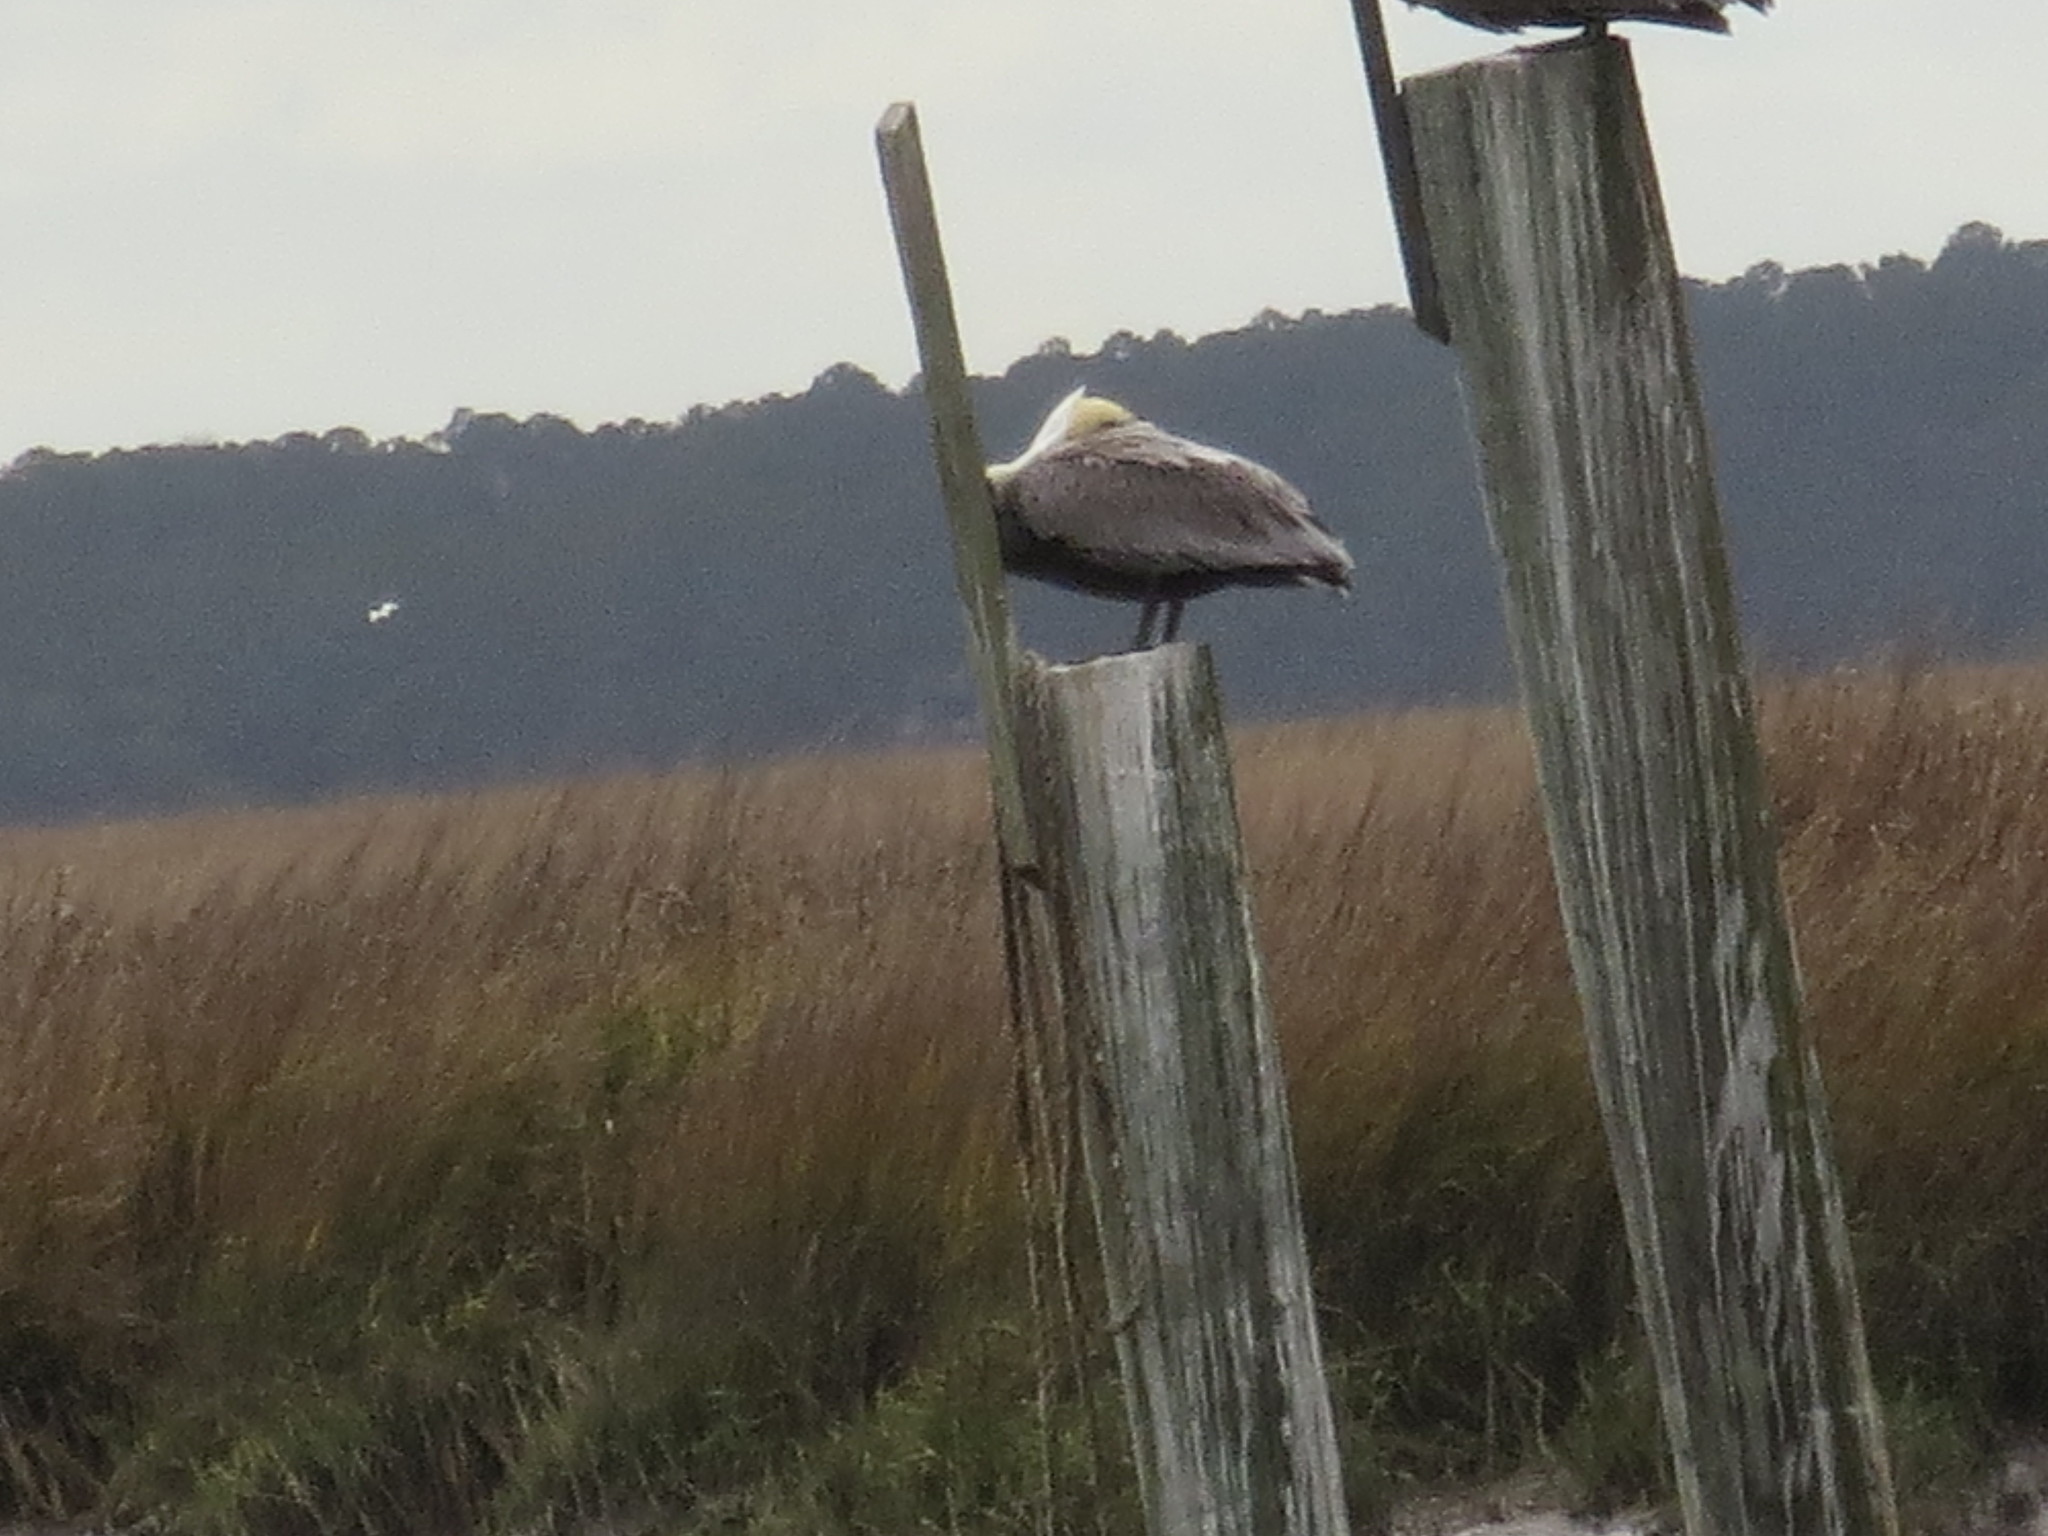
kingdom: Animalia
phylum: Chordata
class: Aves
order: Pelecaniformes
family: Pelecanidae
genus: Pelecanus
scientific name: Pelecanus occidentalis
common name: Brown pelican
